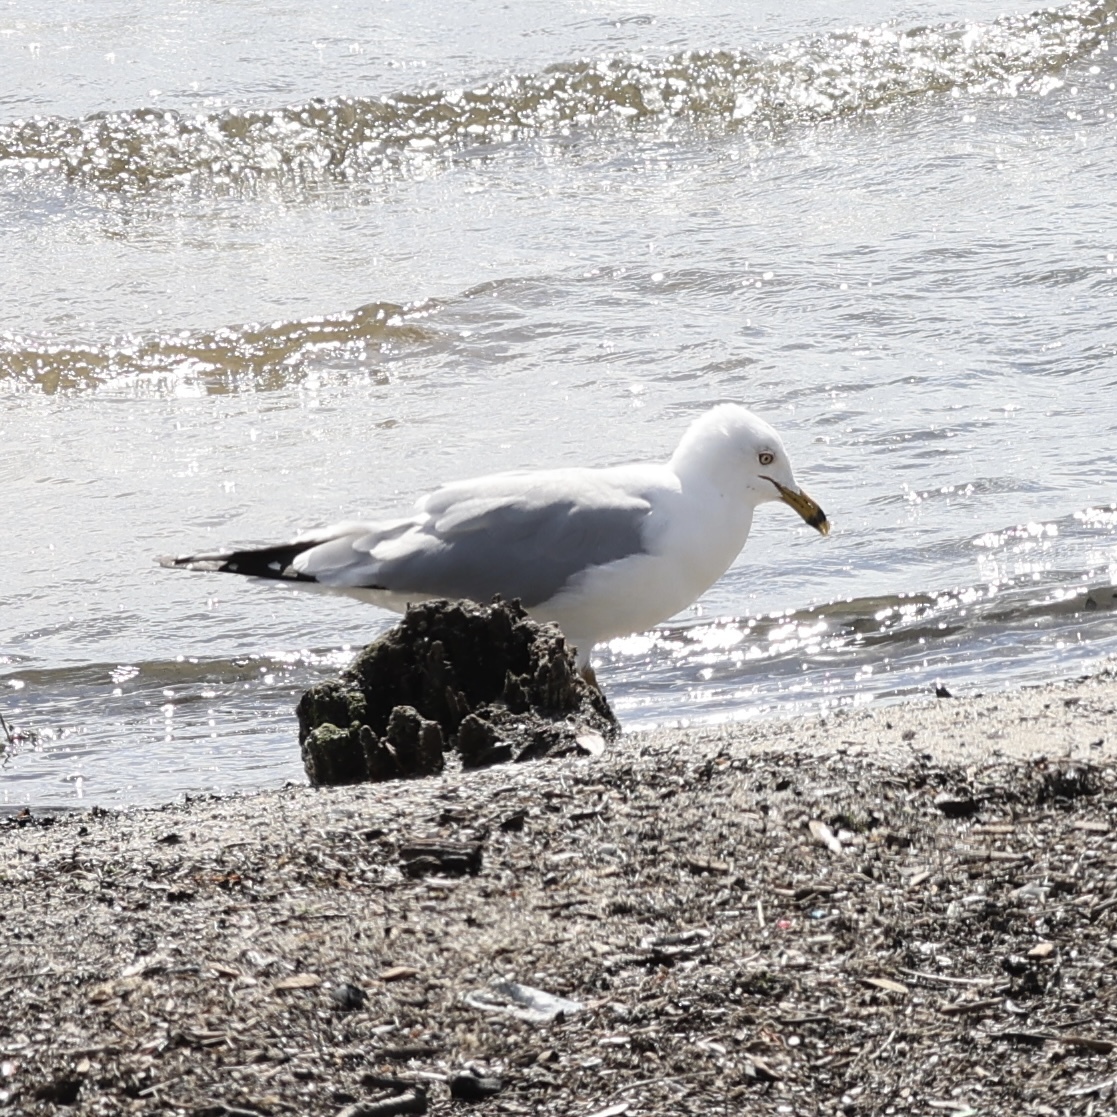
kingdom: Animalia
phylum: Chordata
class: Aves
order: Charadriiformes
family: Laridae
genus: Larus
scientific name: Larus delawarensis
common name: Ring-billed gull
